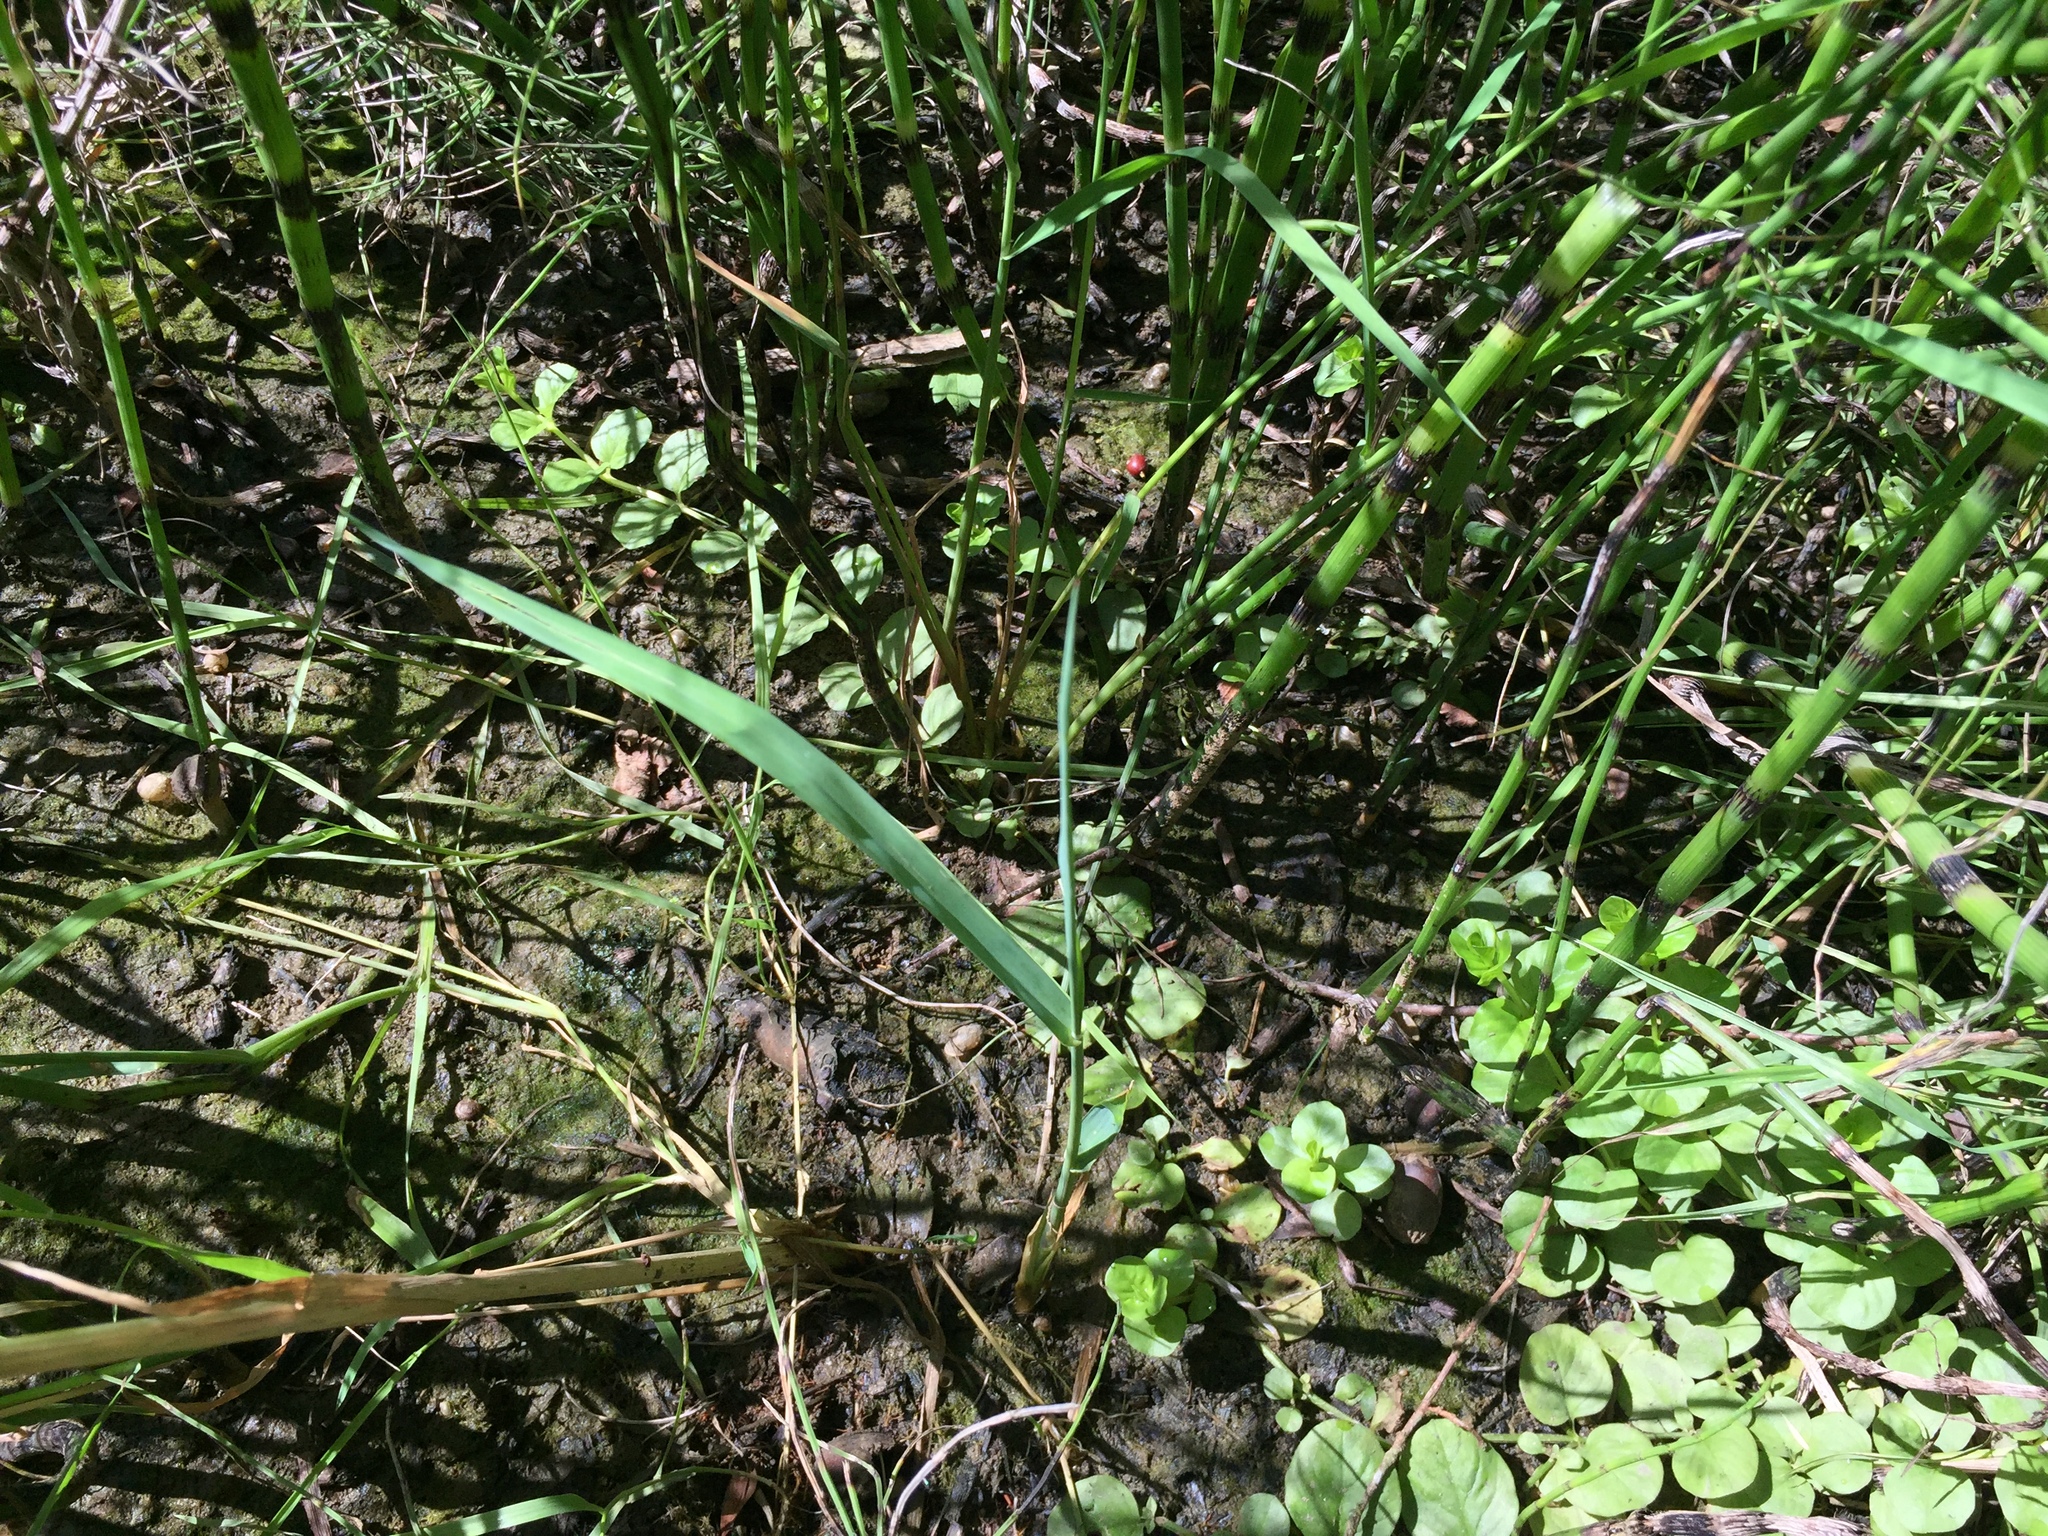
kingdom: Plantae
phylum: Tracheophyta
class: Magnoliopsida
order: Ericales
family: Primulaceae
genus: Lysimachia
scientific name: Lysimachia nummularia
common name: Moneywort
